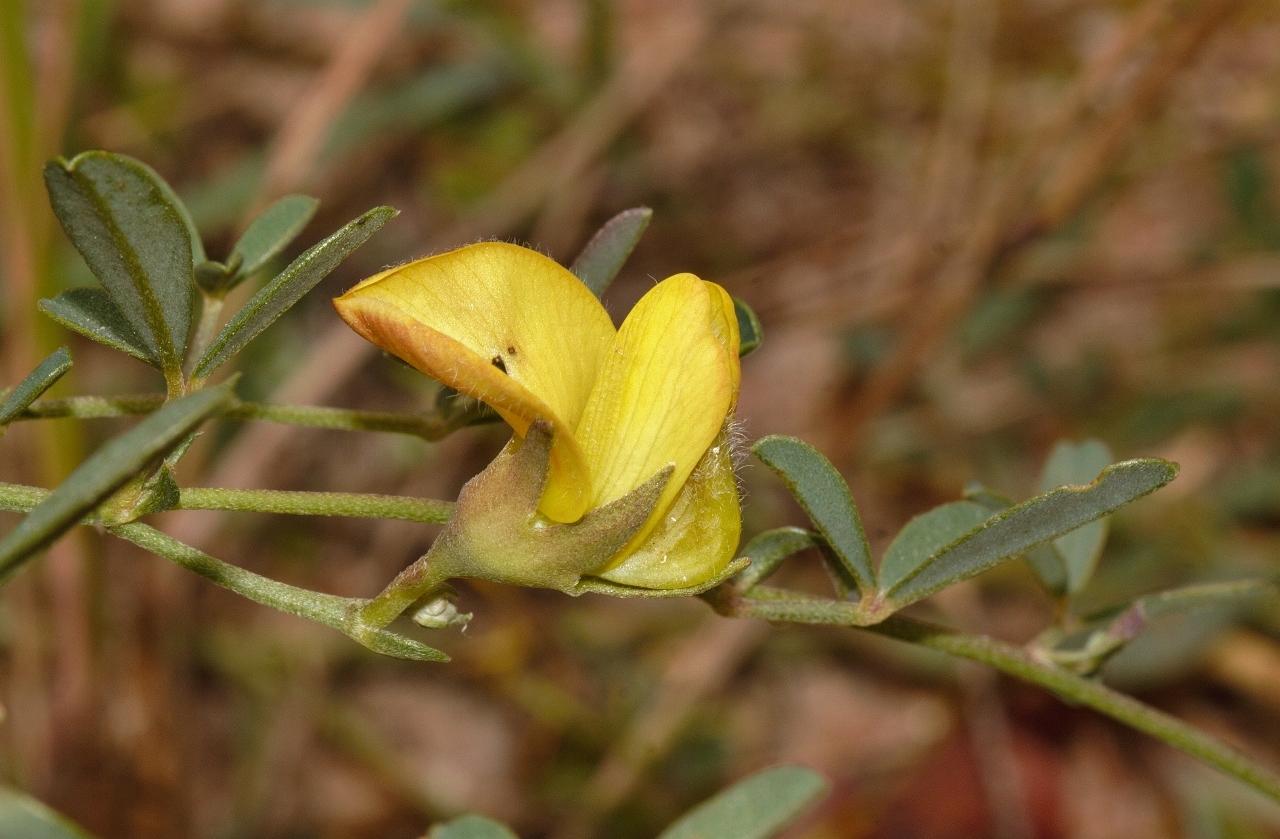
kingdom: Plantae
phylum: Tracheophyta
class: Magnoliopsida
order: Fabales
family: Fabaceae
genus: Crotalaria
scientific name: Crotalaria rhodesiae
